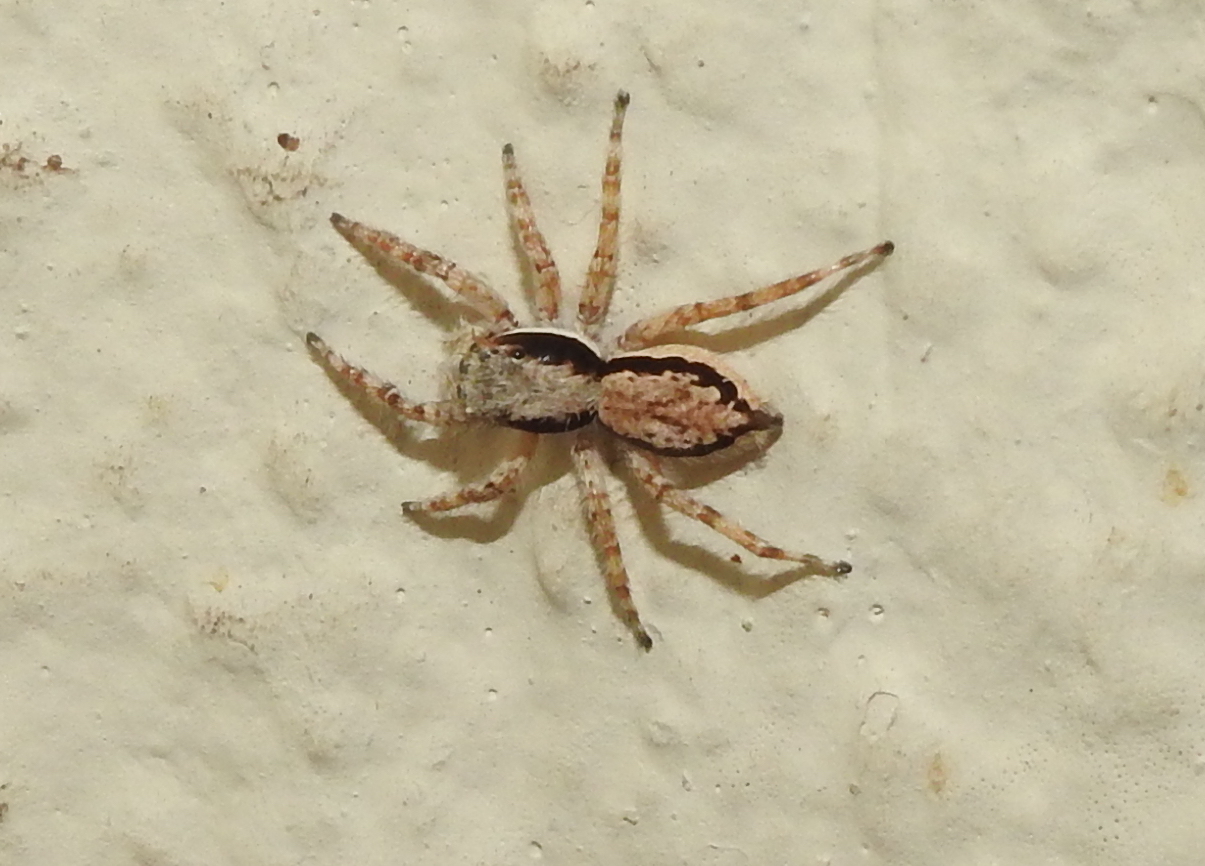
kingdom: Animalia
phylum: Arthropoda
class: Arachnida
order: Araneae
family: Salticidae
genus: Menemerus
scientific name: Menemerus bivittatus
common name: Gray wall jumper
